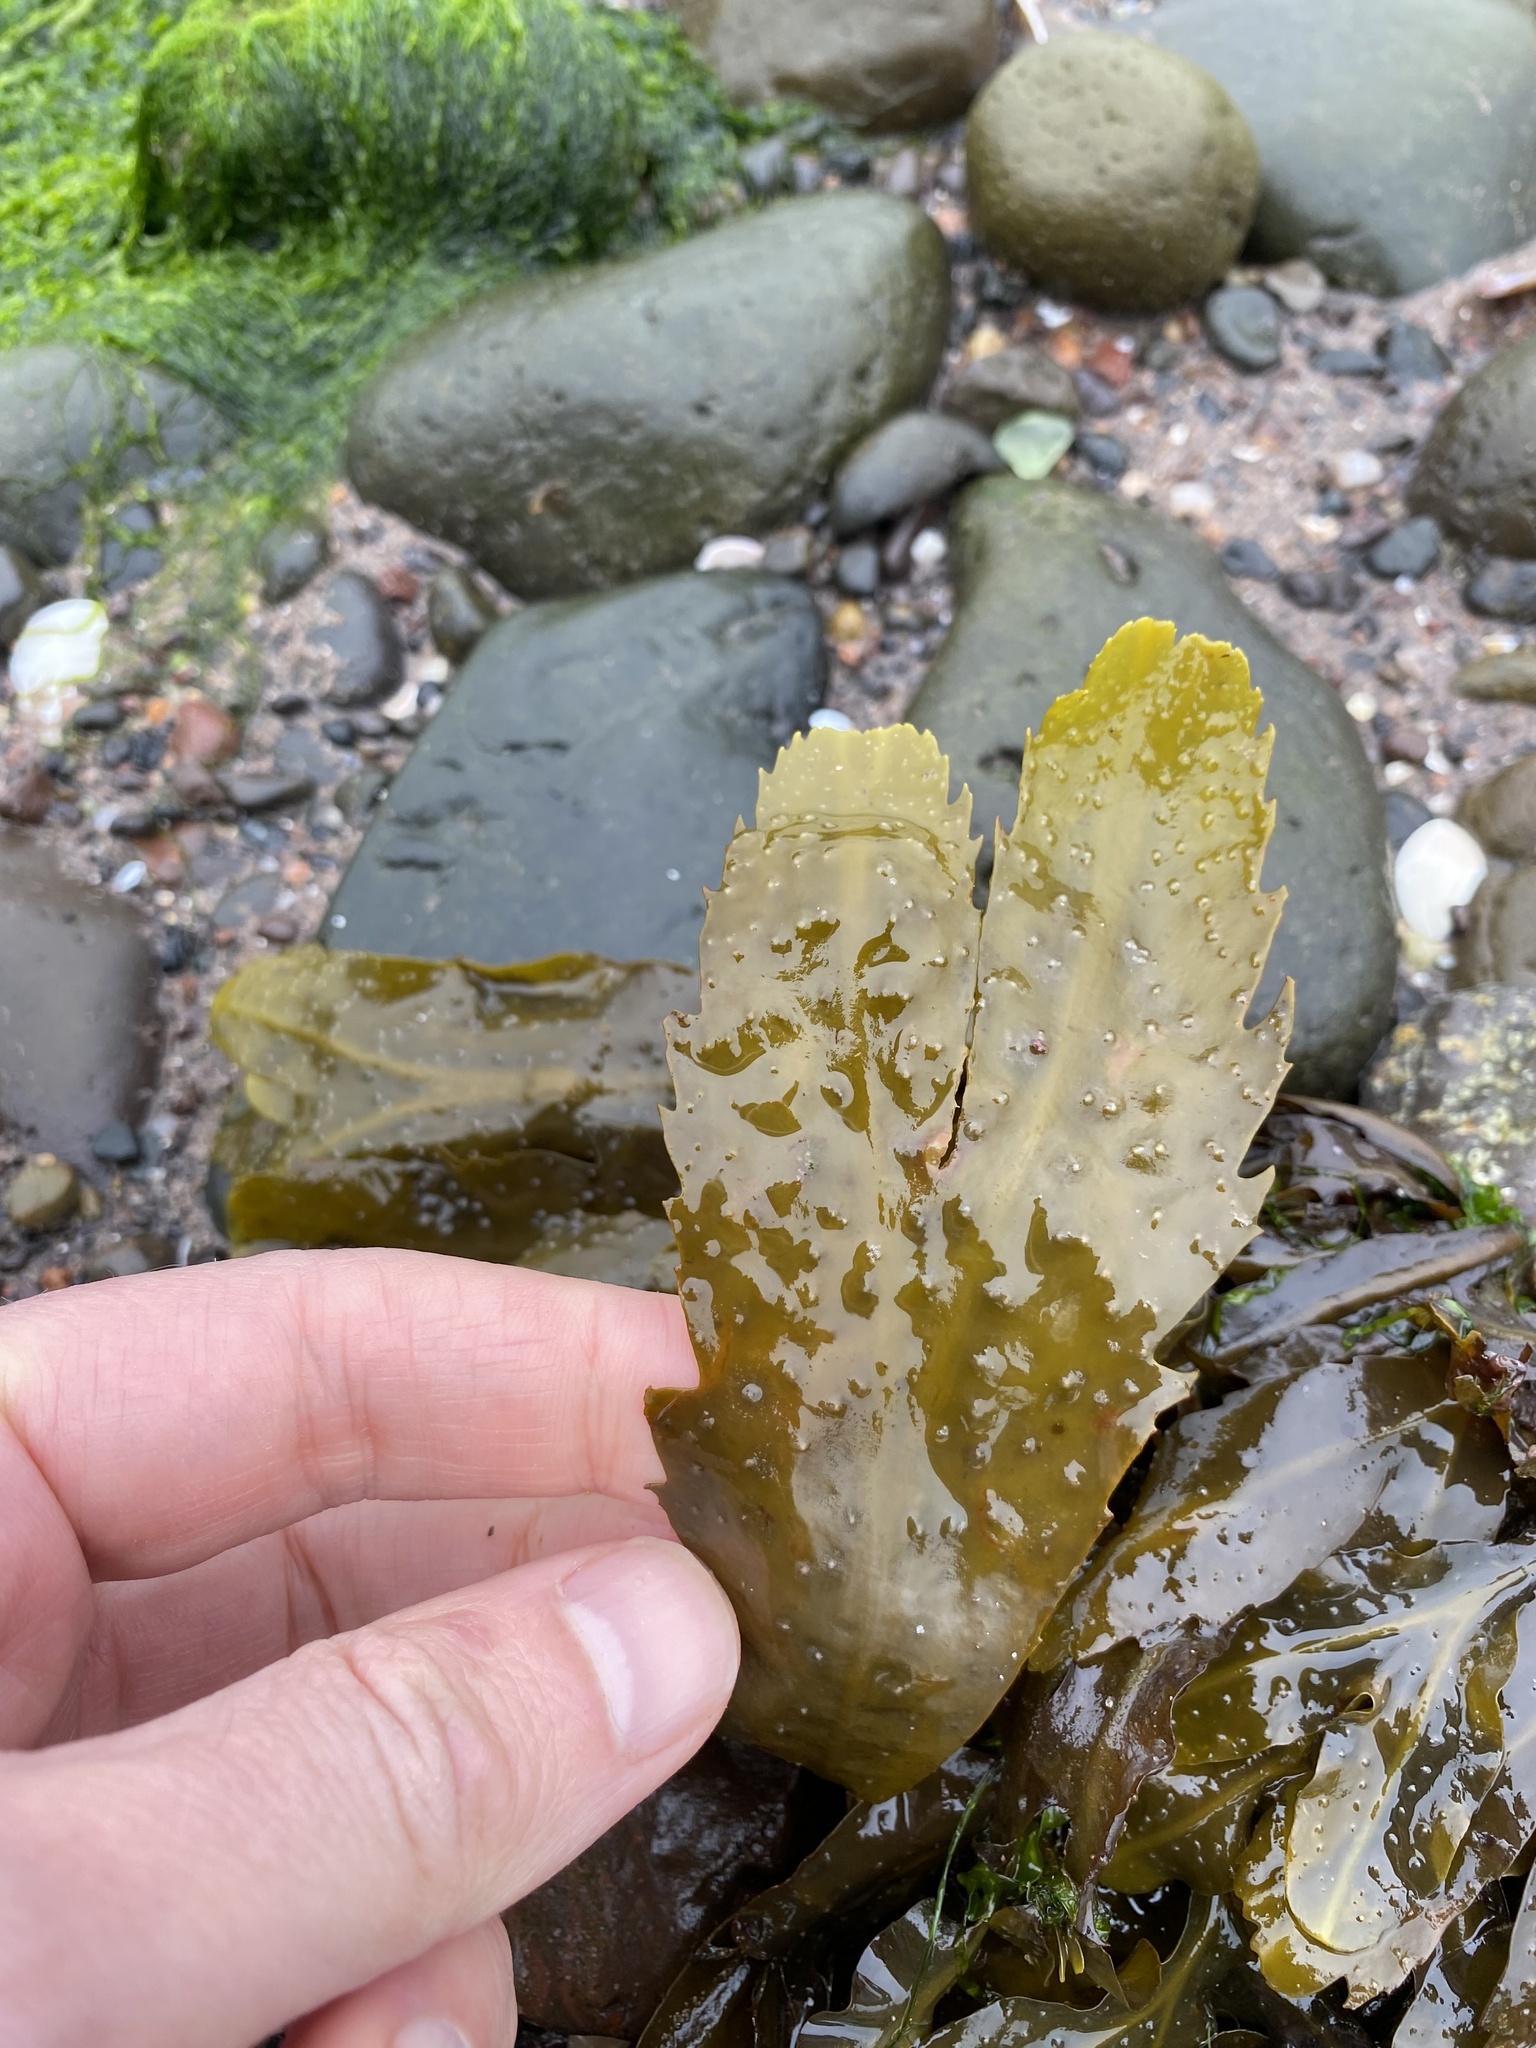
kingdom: Chromista
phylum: Ochrophyta
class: Phaeophyceae
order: Fucales
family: Fucaceae
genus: Fucus
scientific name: Fucus serratus
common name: Toothed wrack
